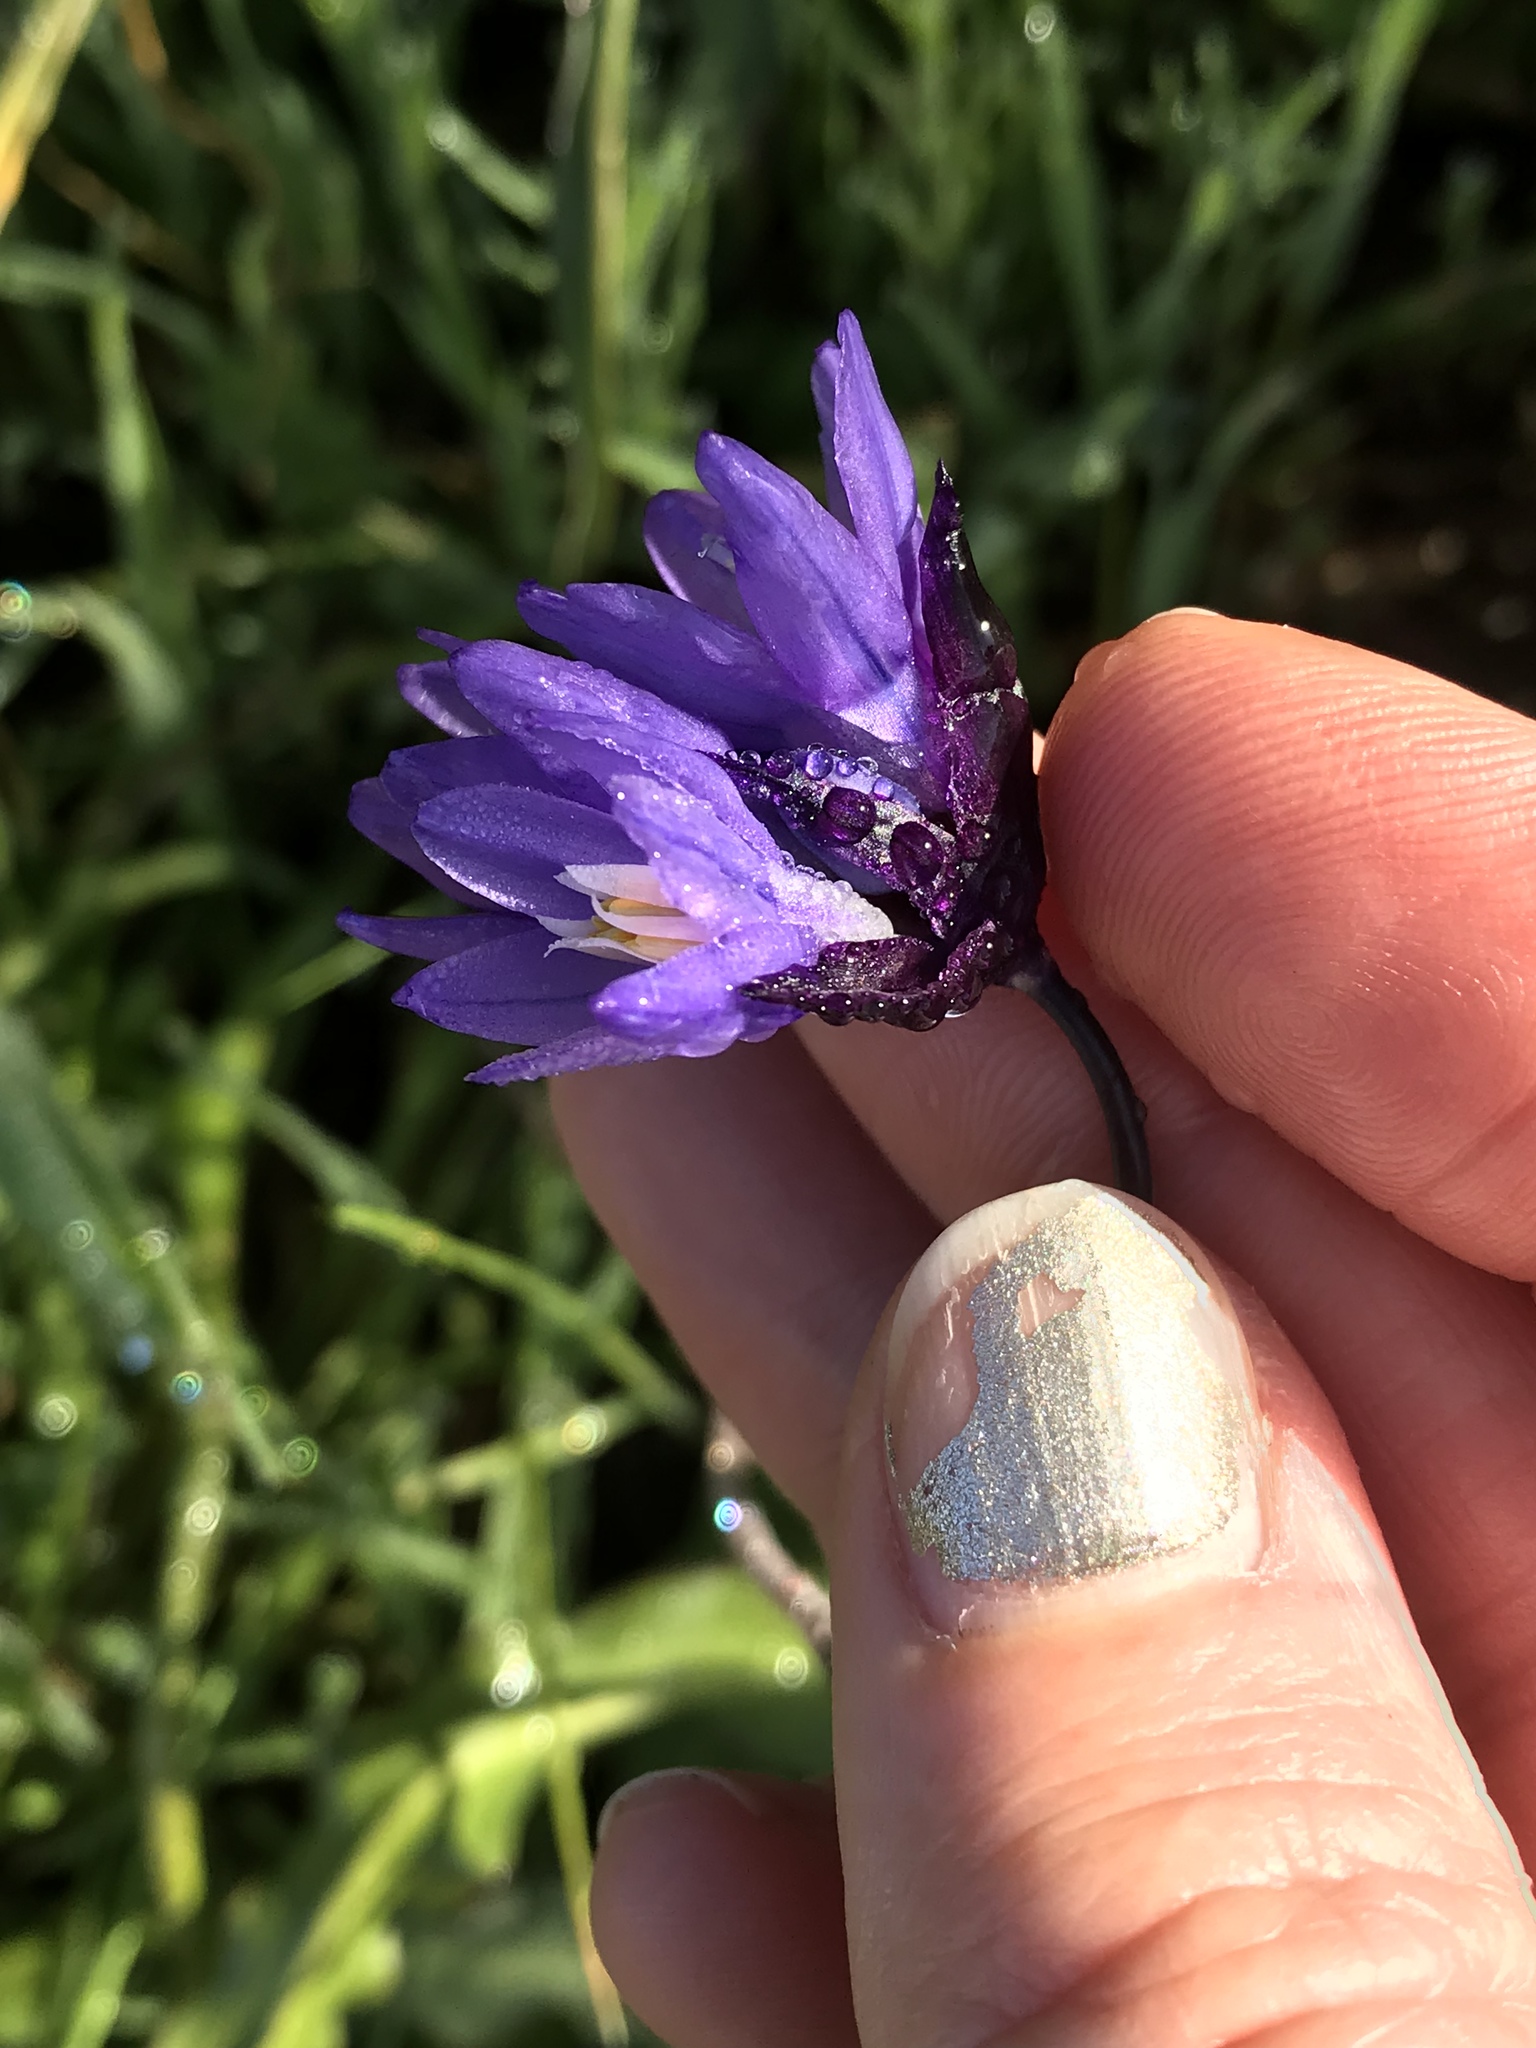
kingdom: Plantae
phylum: Tracheophyta
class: Liliopsida
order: Asparagales
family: Asparagaceae
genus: Dipterostemon
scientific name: Dipterostemon capitatus
